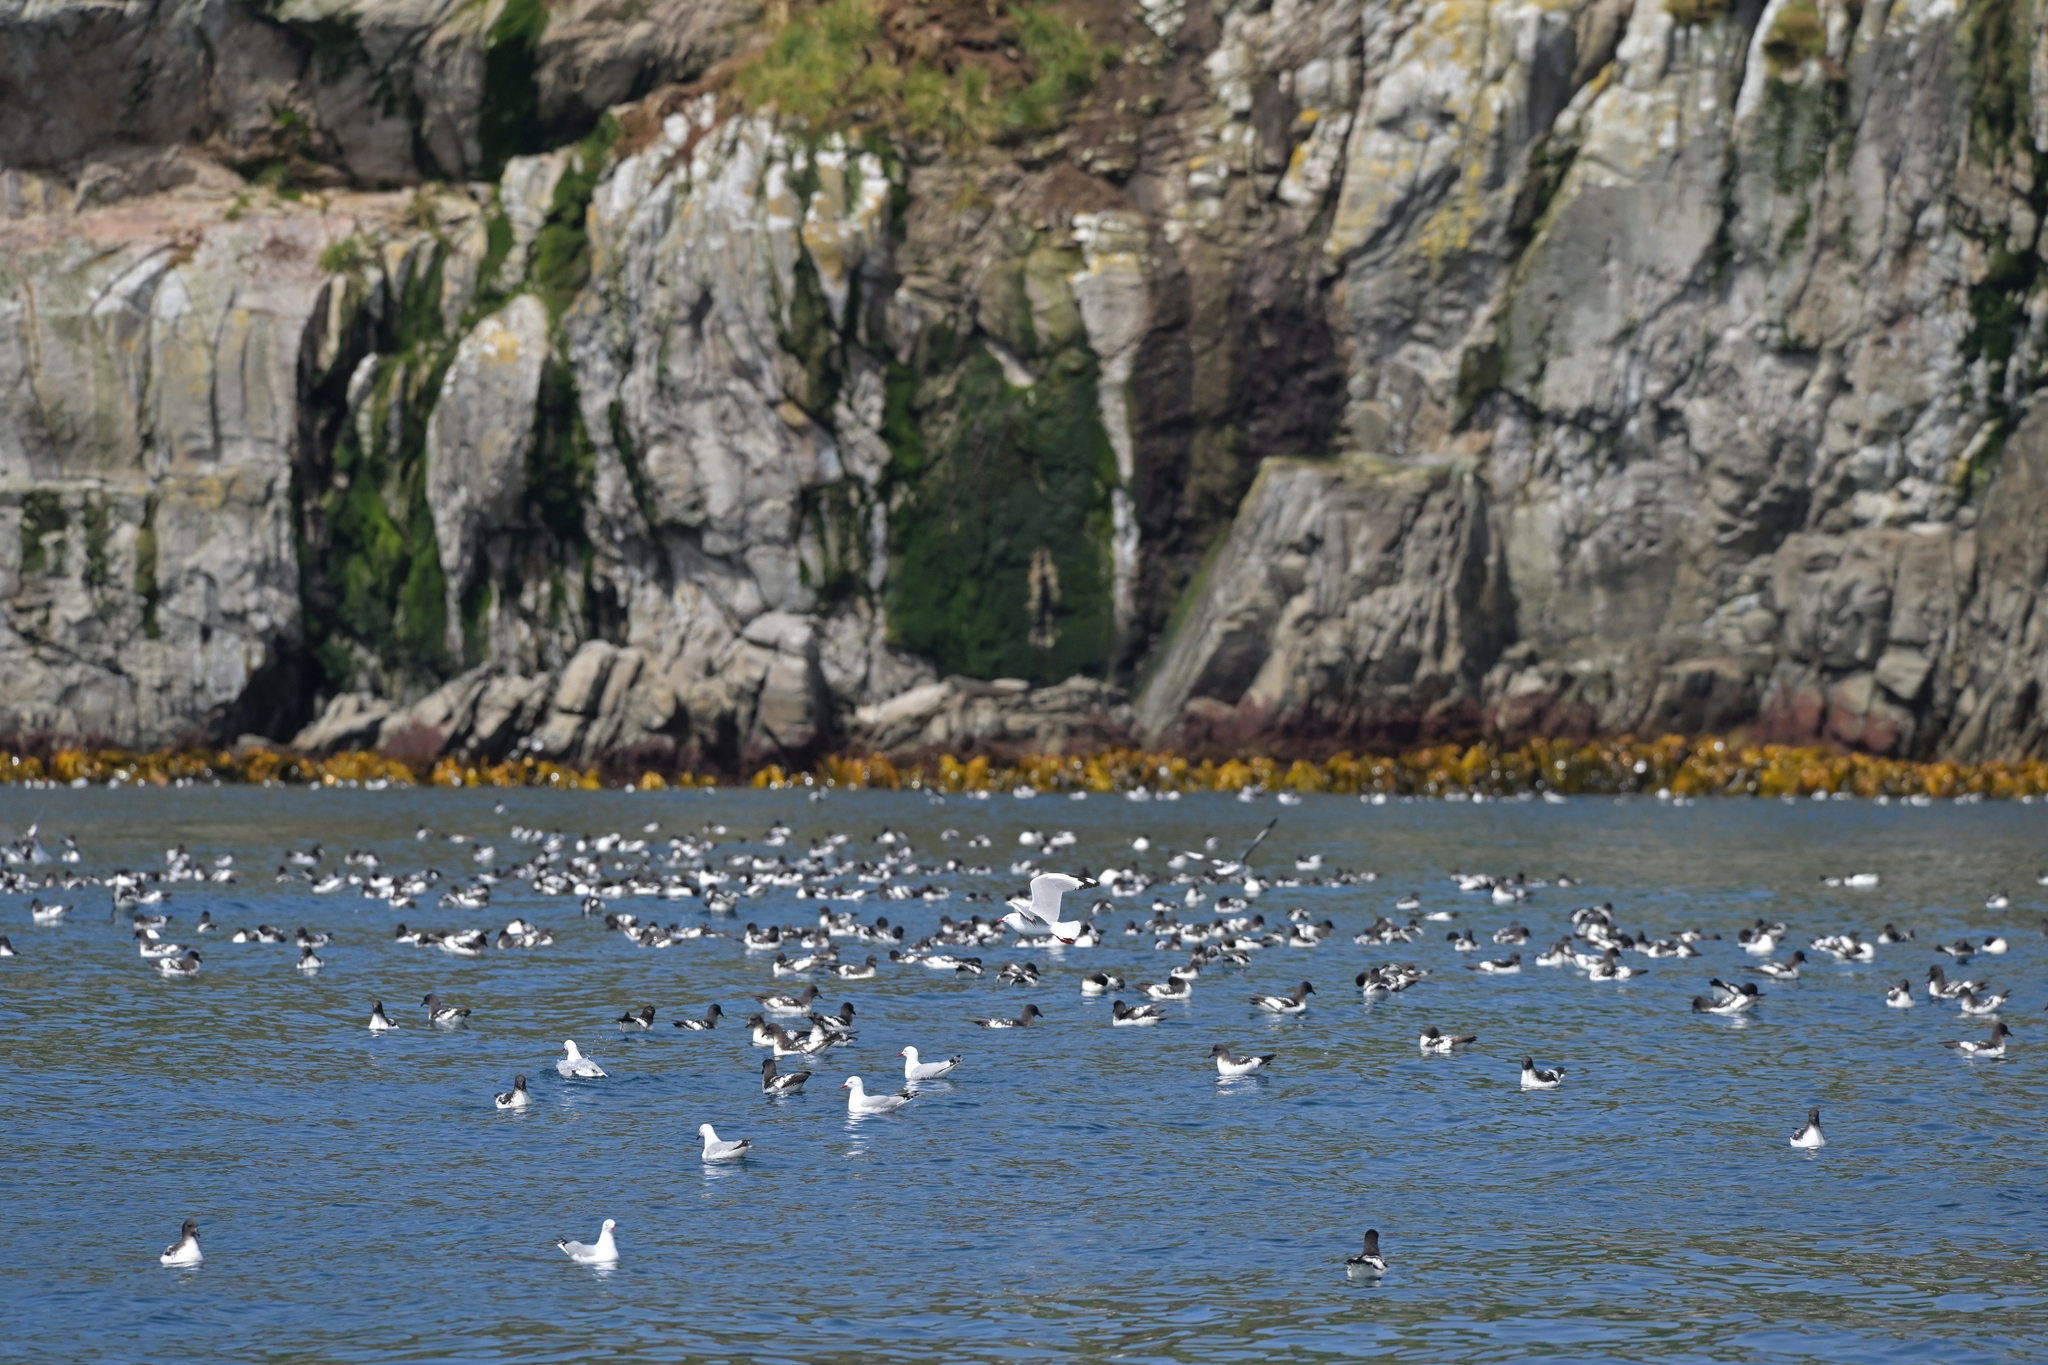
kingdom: Animalia
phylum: Chordata
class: Aves
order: Charadriiformes
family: Laridae
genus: Chroicocephalus
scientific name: Chroicocephalus novaehollandiae
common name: Silver gull
